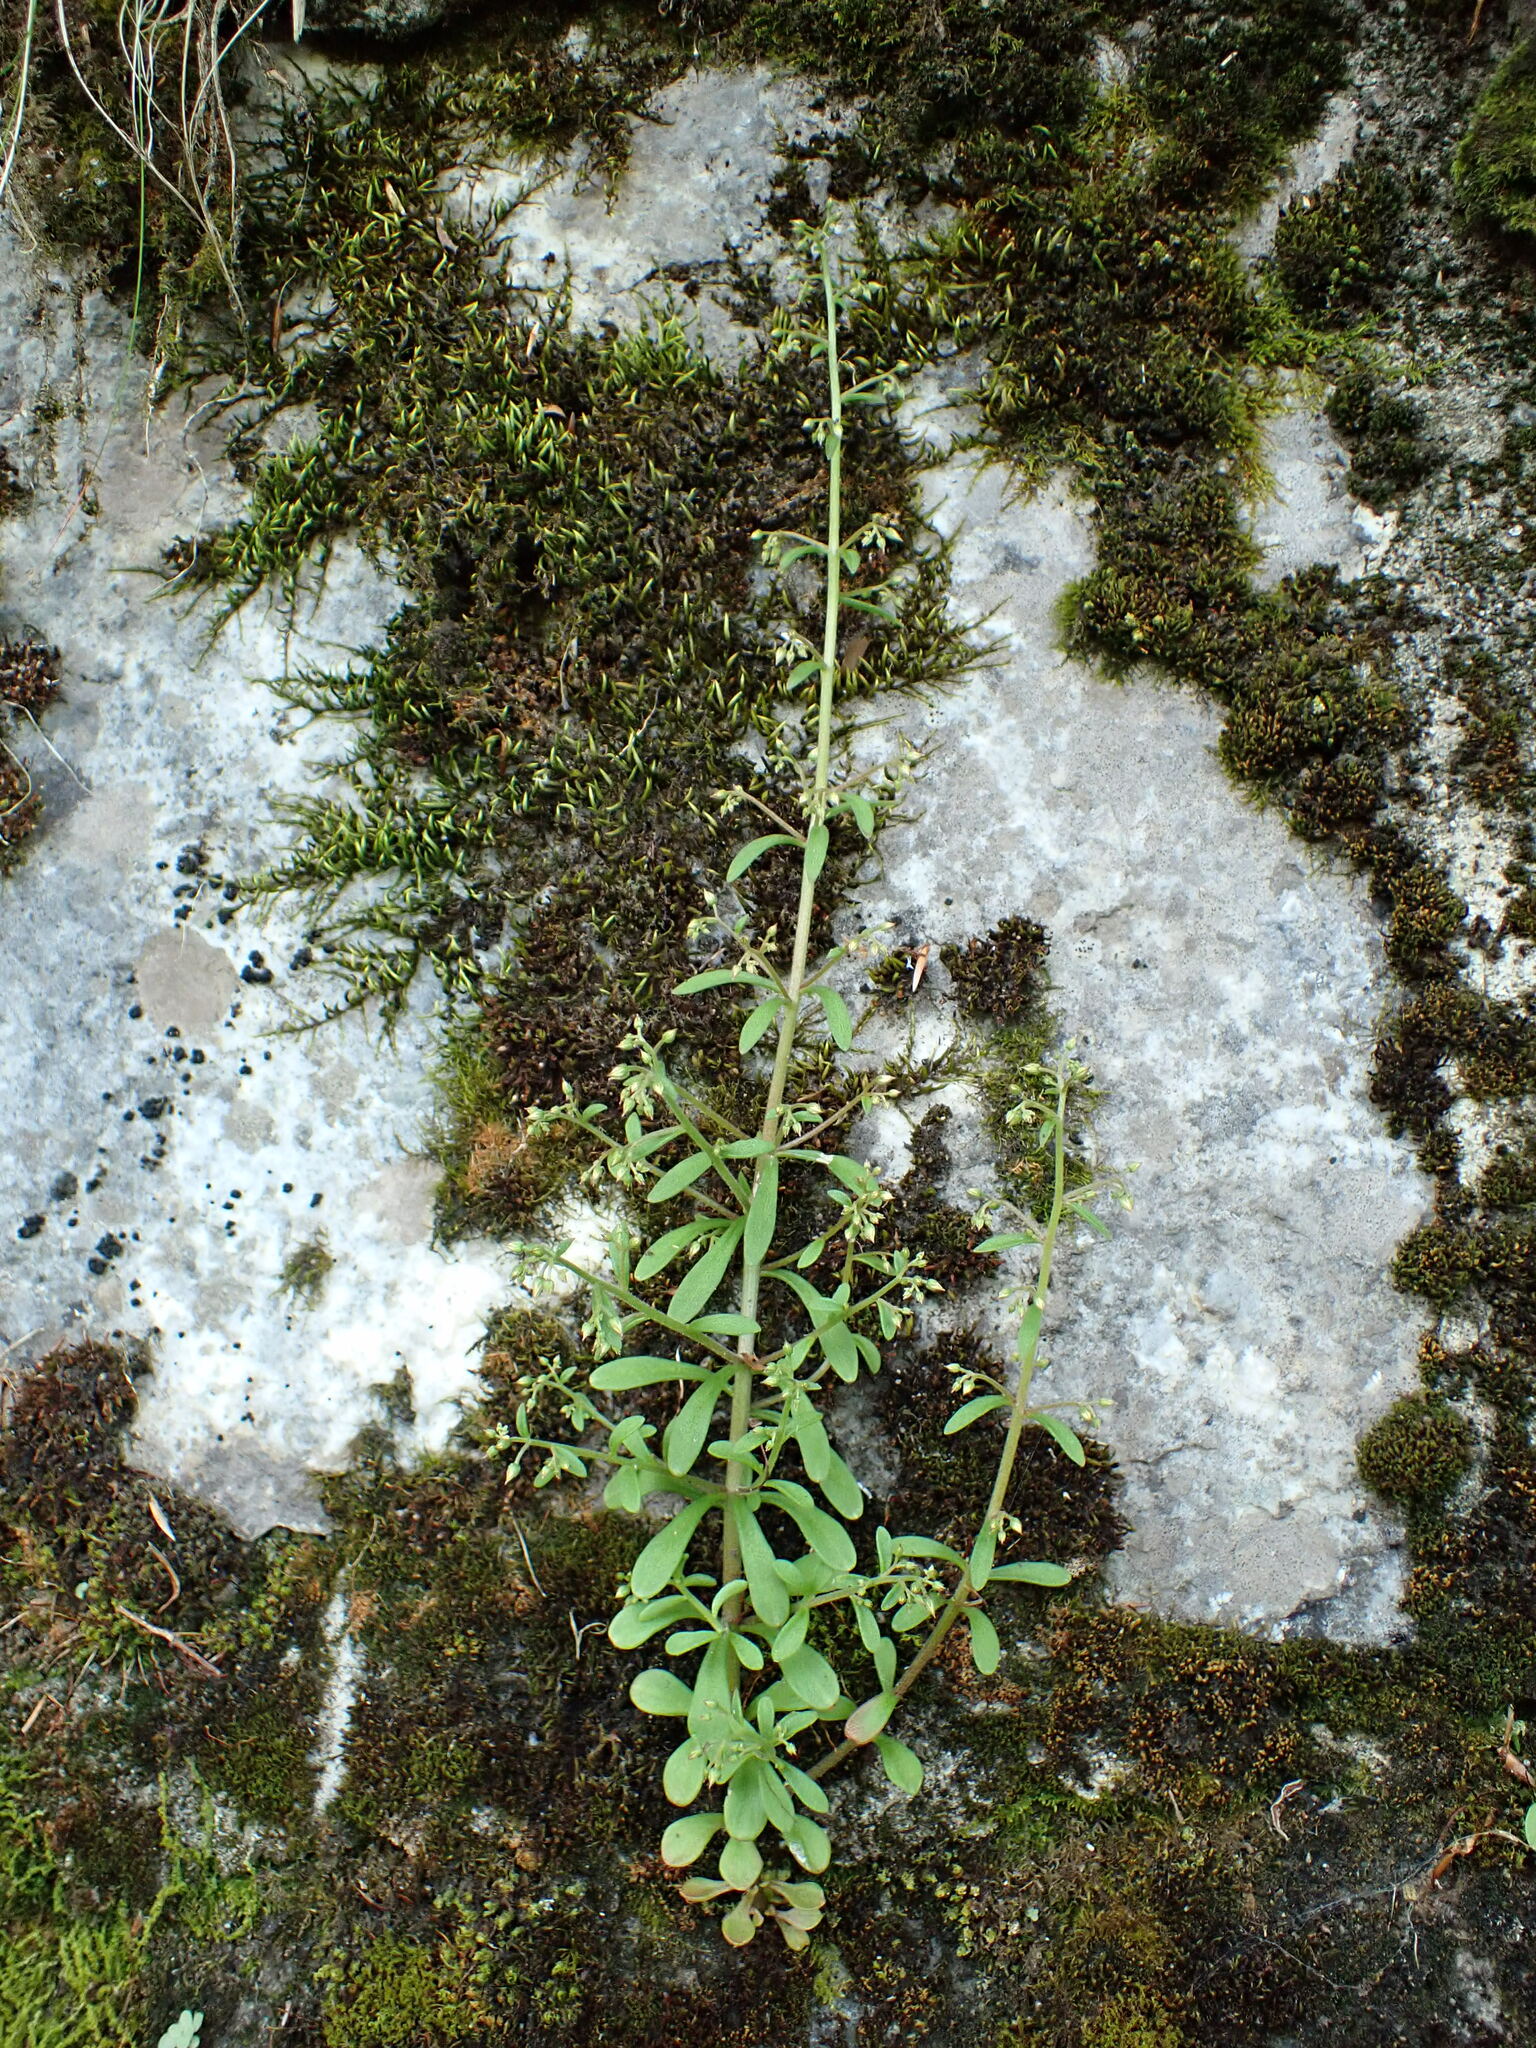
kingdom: Plantae
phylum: Tracheophyta
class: Magnoliopsida
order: Saxifragales
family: Crassulaceae
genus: Sedum
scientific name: Sedum cepaea
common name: Pink stonecrop
